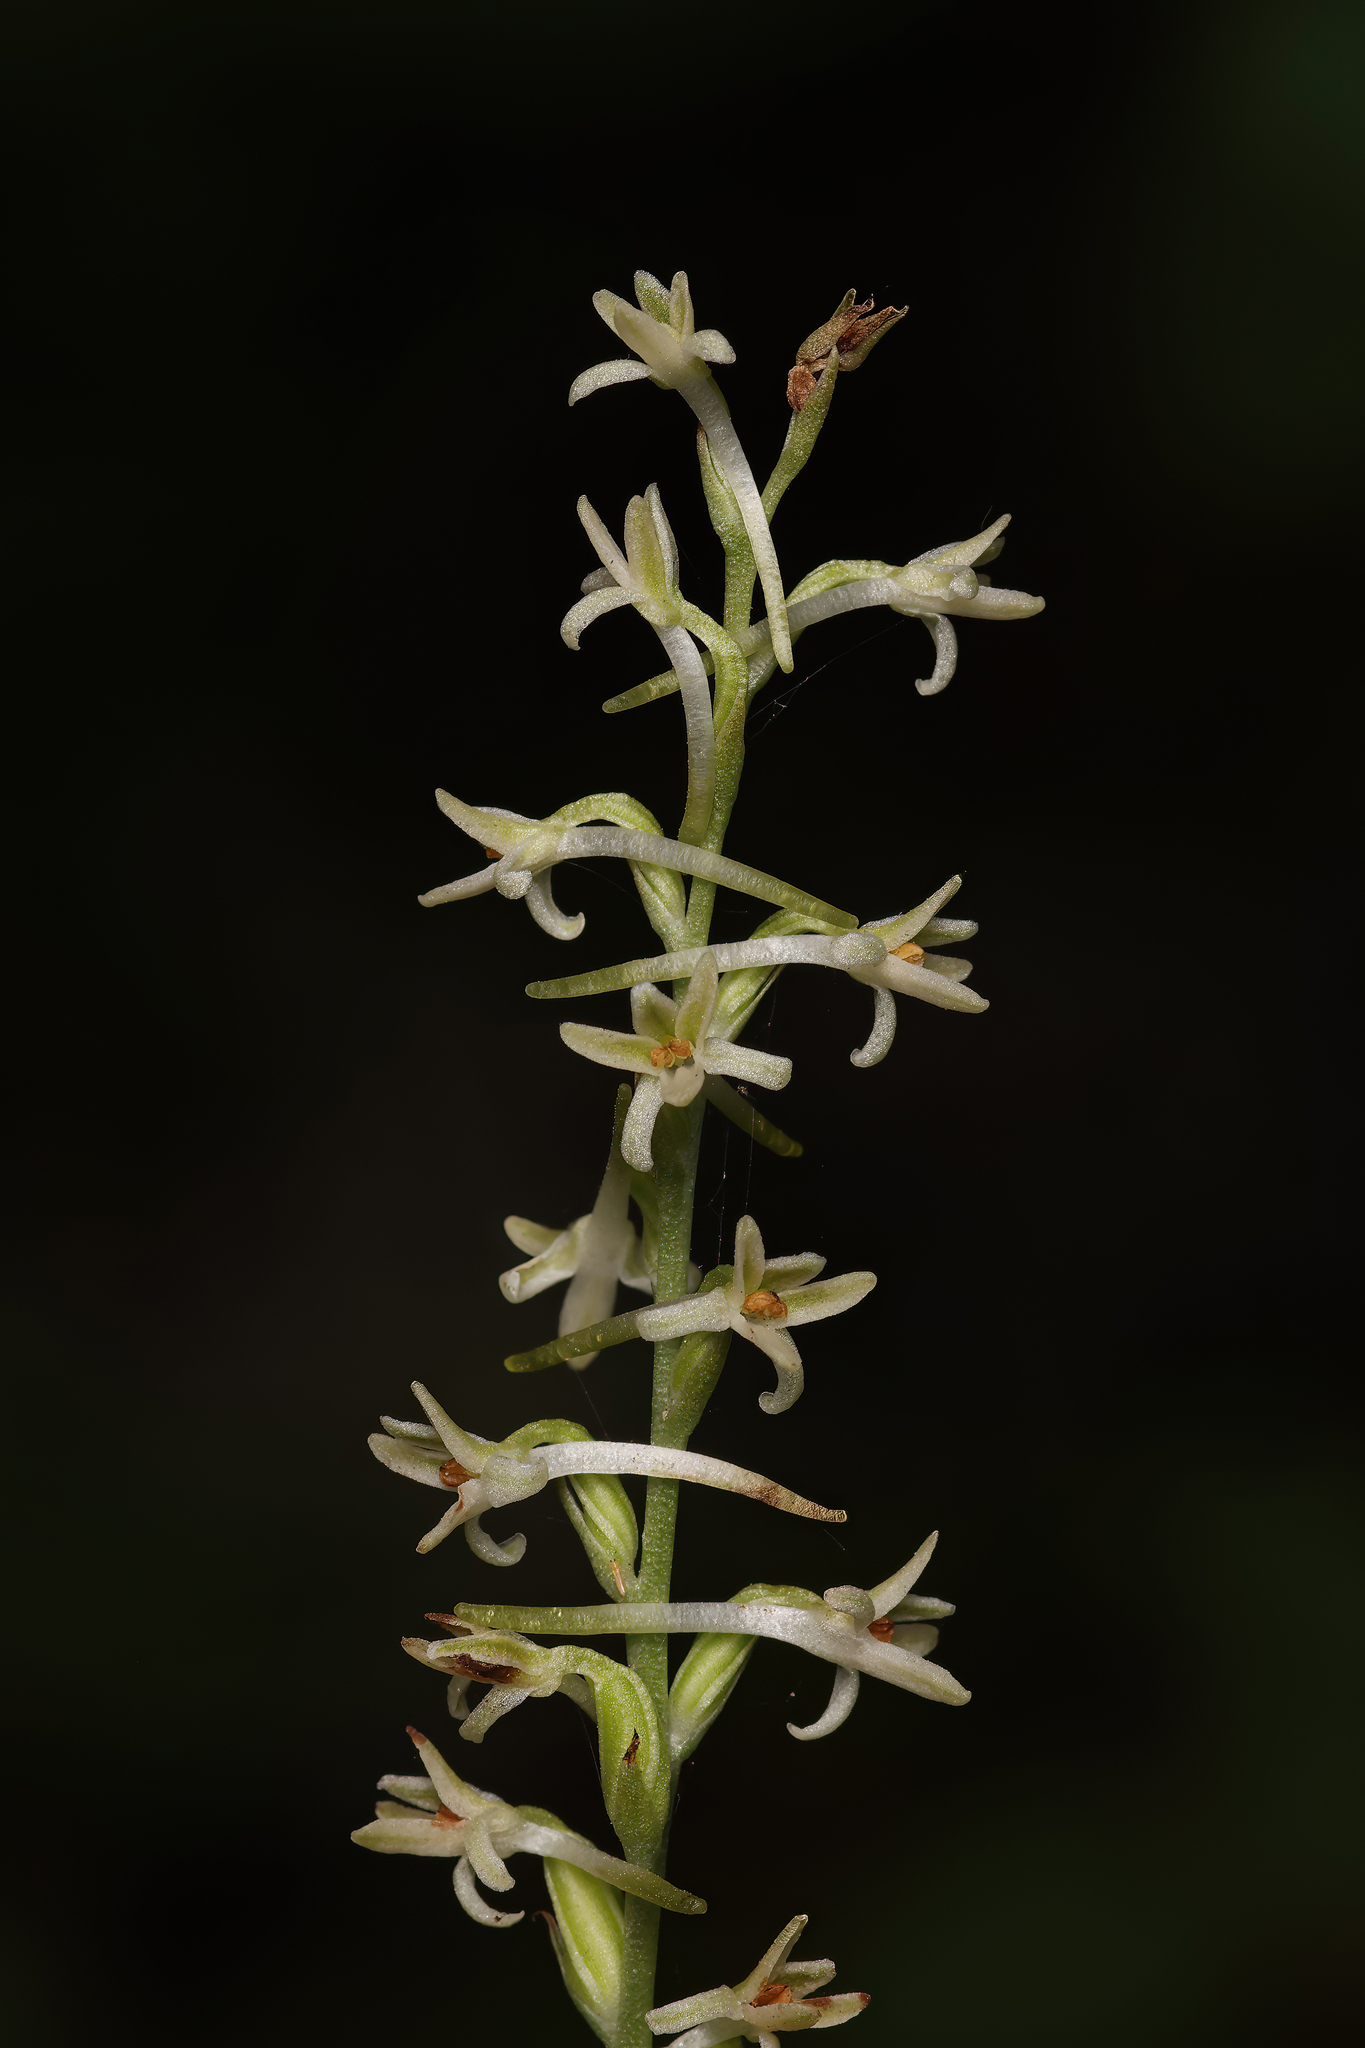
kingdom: Plantae
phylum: Tracheophyta
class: Liliopsida
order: Asparagales
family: Orchidaceae
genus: Platanthera
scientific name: Platanthera transversa
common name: Royal rein orchid
